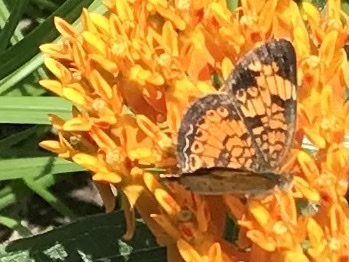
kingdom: Animalia
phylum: Arthropoda
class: Insecta
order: Lepidoptera
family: Nymphalidae
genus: Phyciodes
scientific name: Phyciodes tharos
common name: Pearl crescent
